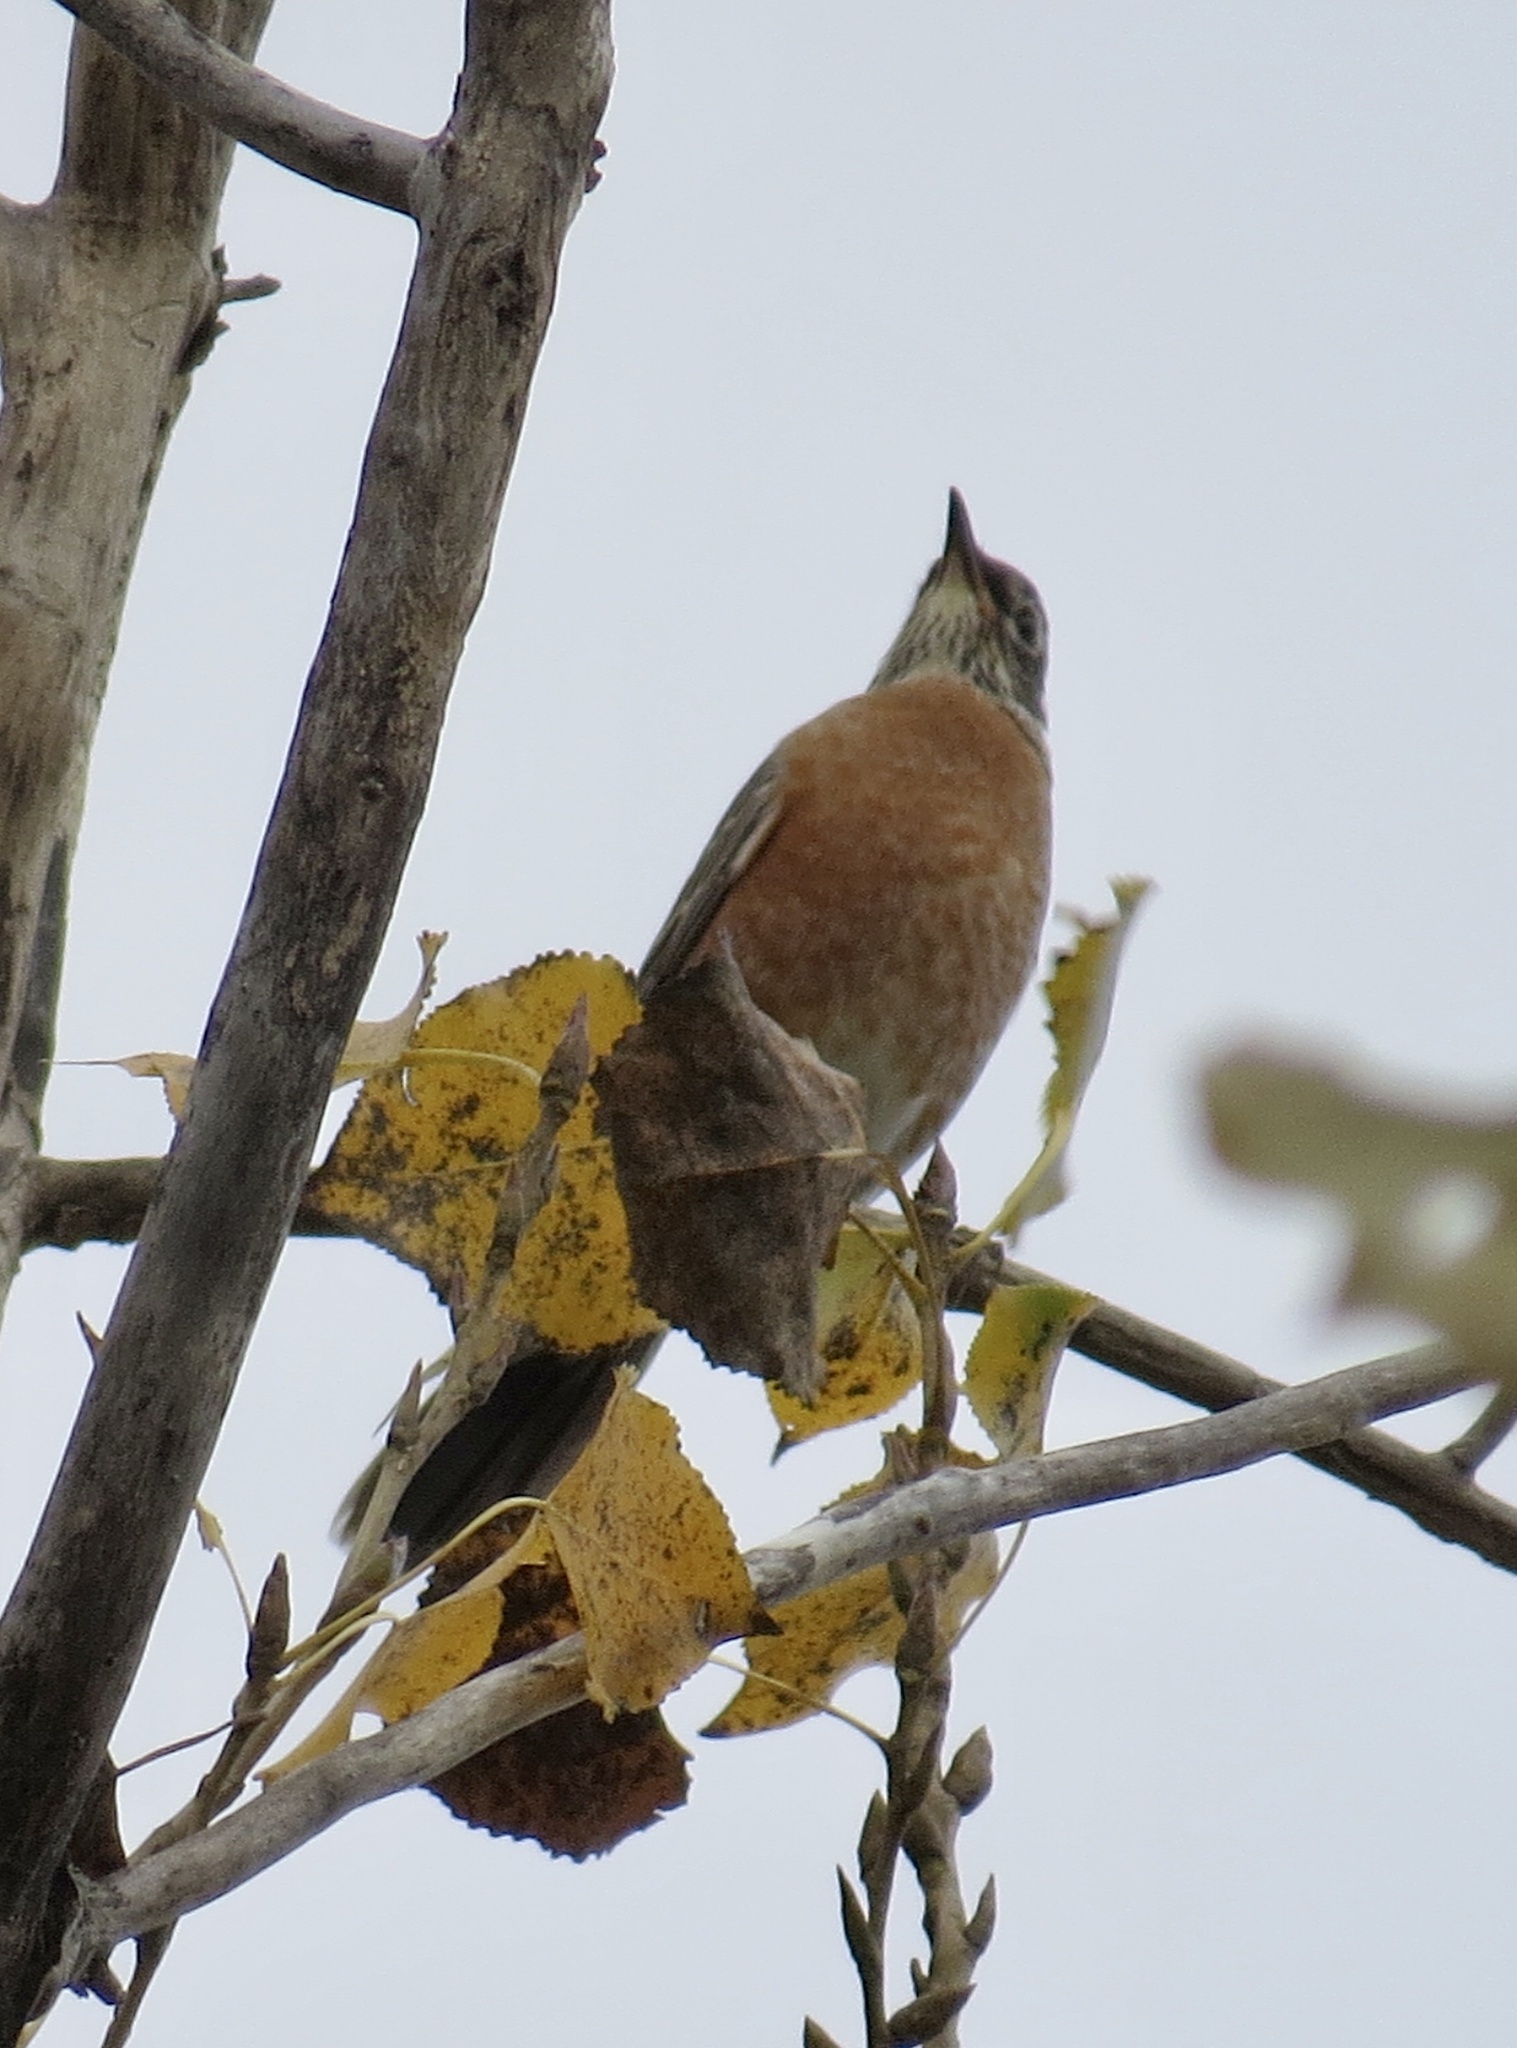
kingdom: Animalia
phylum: Chordata
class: Aves
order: Passeriformes
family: Turdidae
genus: Turdus
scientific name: Turdus migratorius
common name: American robin
